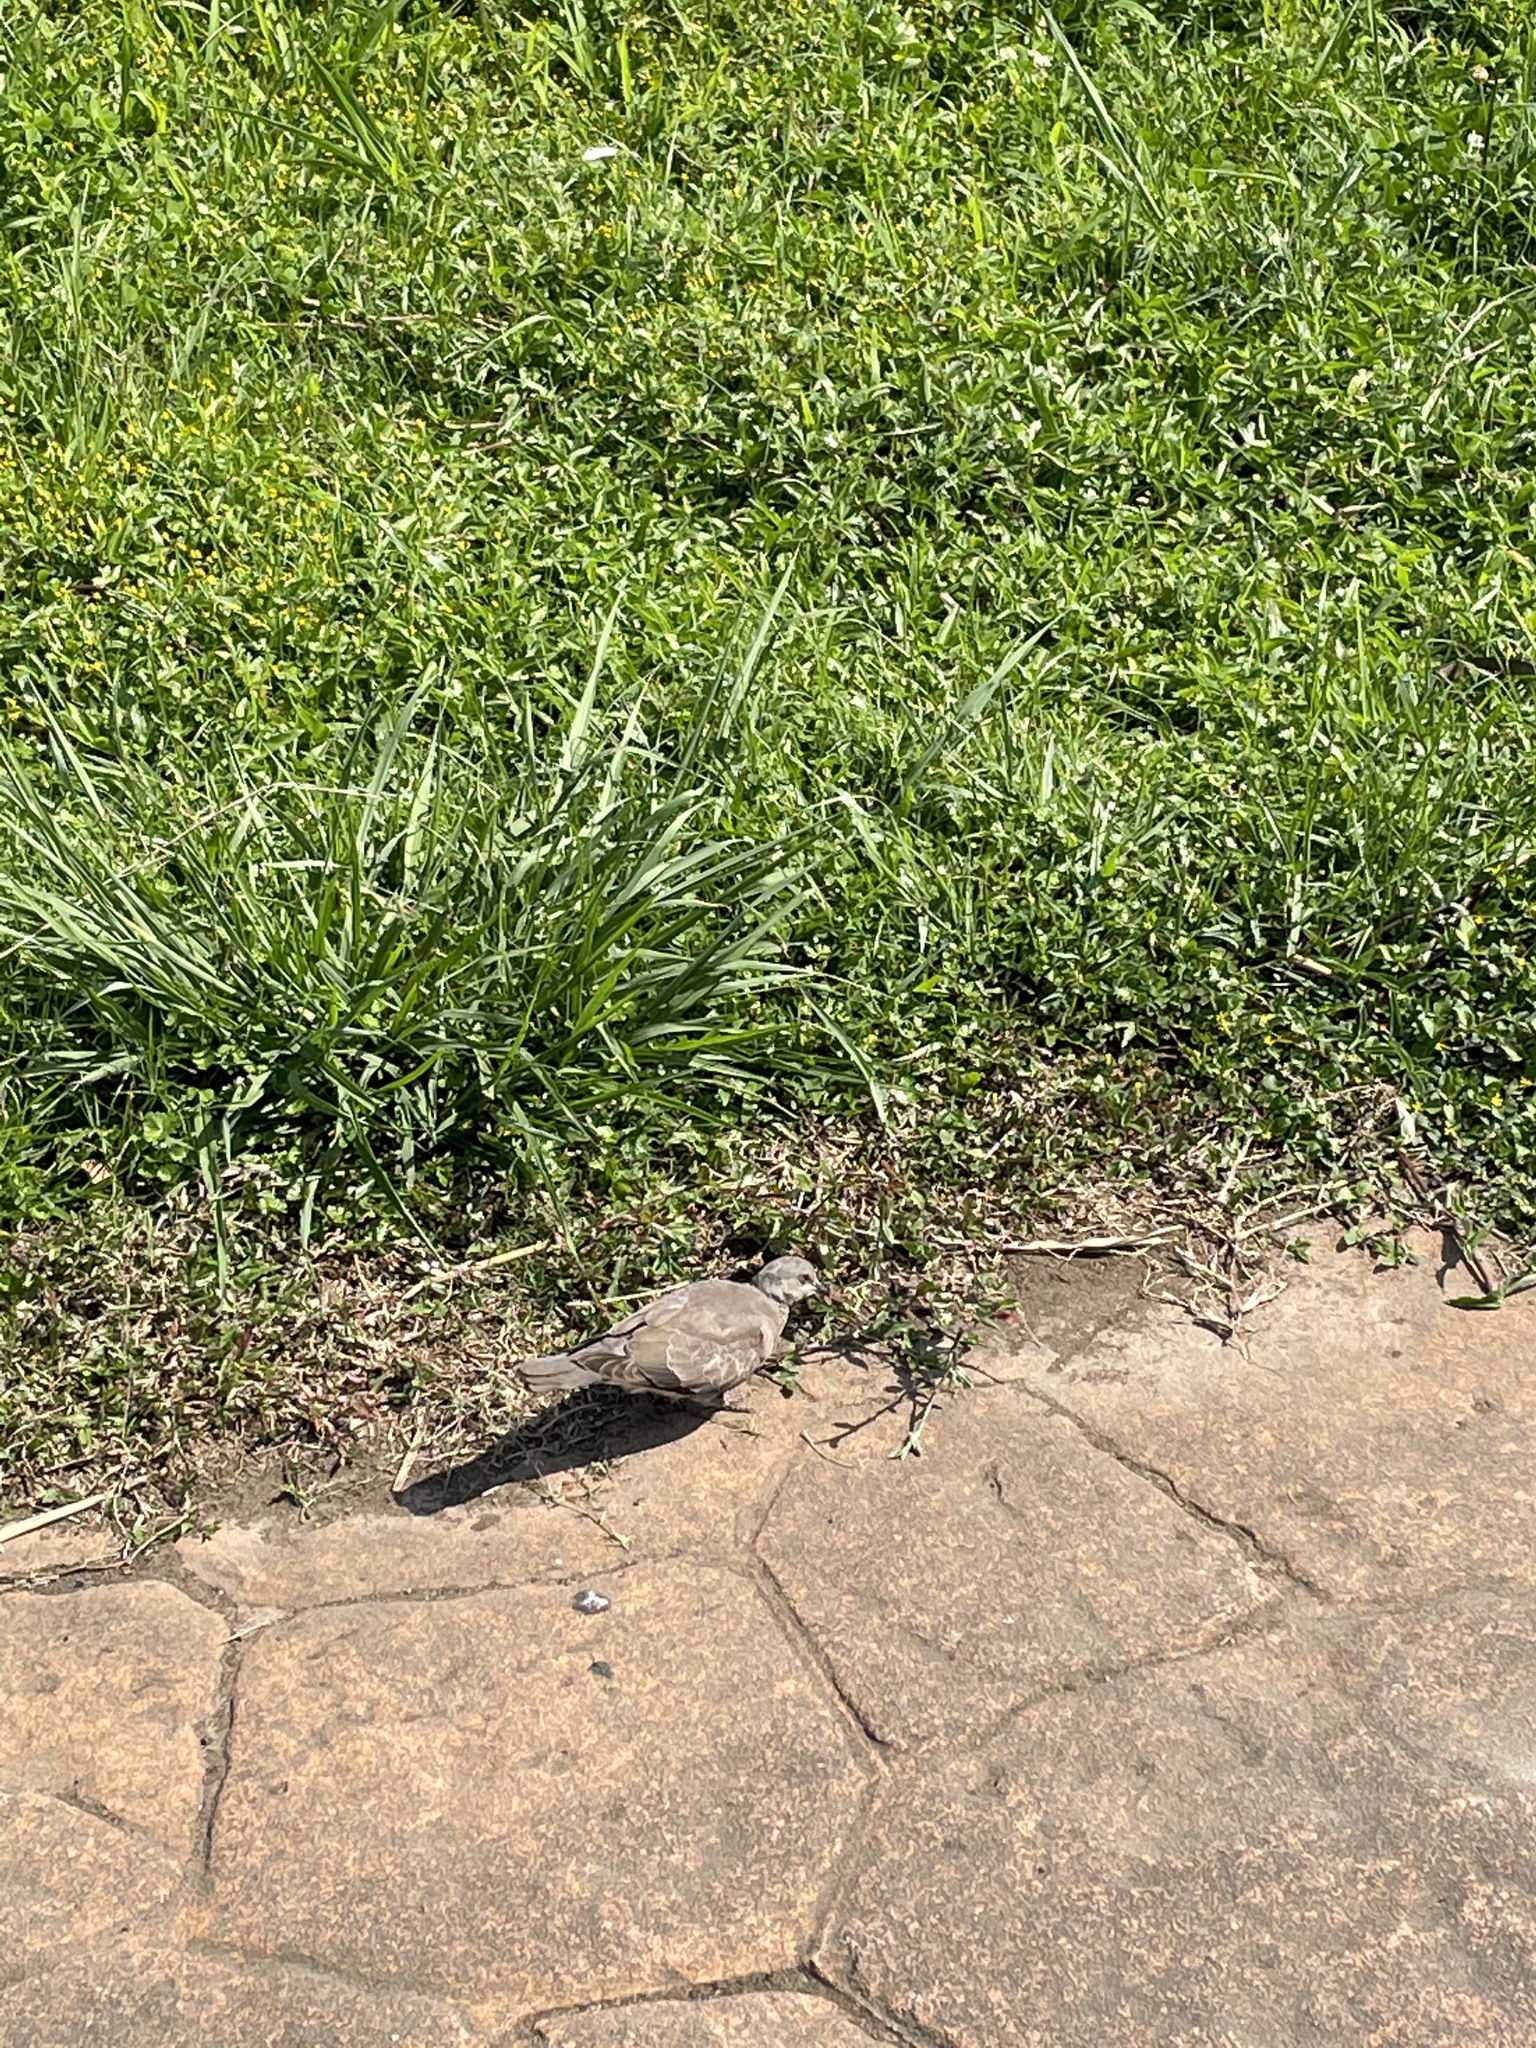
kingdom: Animalia
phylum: Chordata
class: Aves
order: Columbiformes
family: Columbidae
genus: Streptopelia
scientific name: Streptopelia tranquebarica
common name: Red turtle dove
